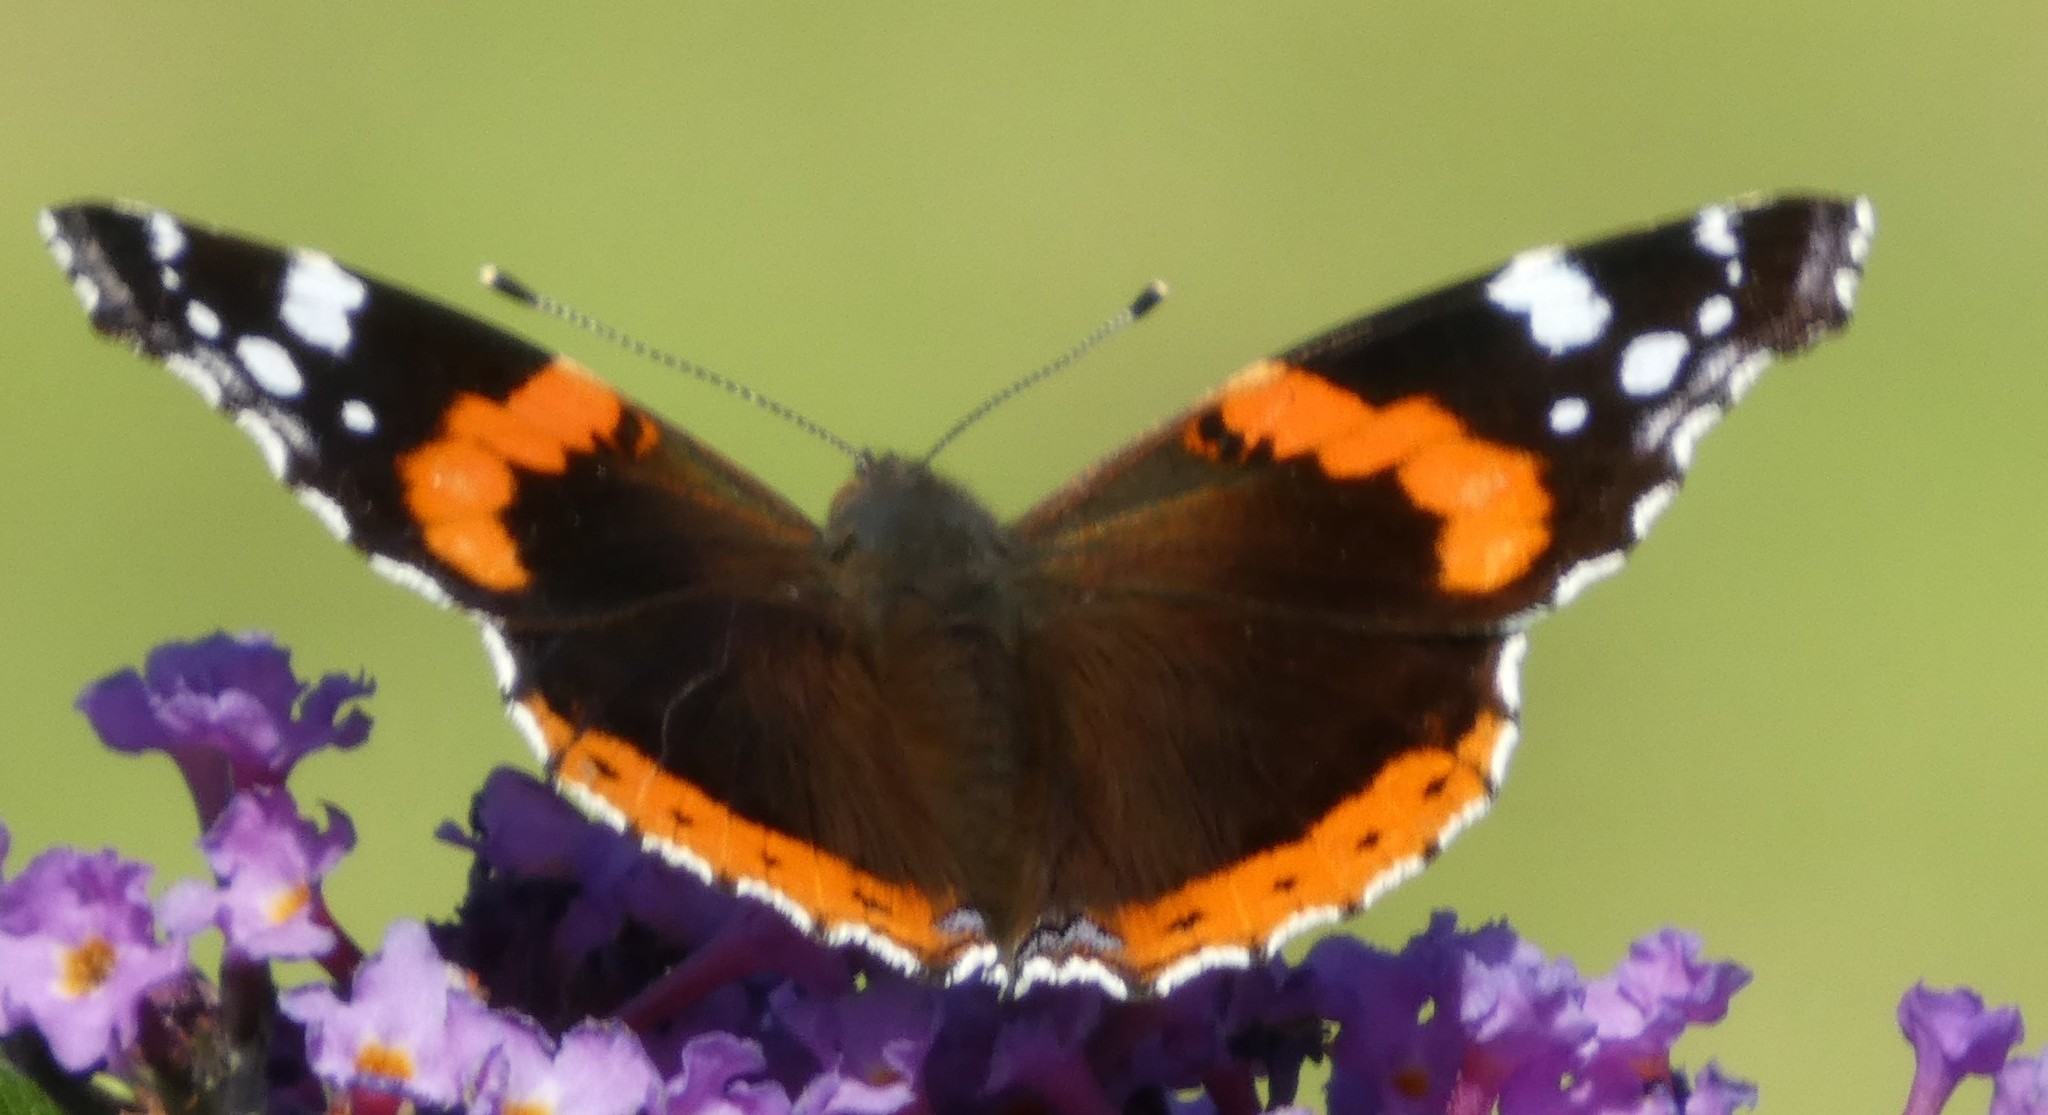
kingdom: Animalia
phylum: Arthropoda
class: Insecta
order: Lepidoptera
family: Nymphalidae
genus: Vanessa
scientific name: Vanessa atalanta
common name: Red admiral
